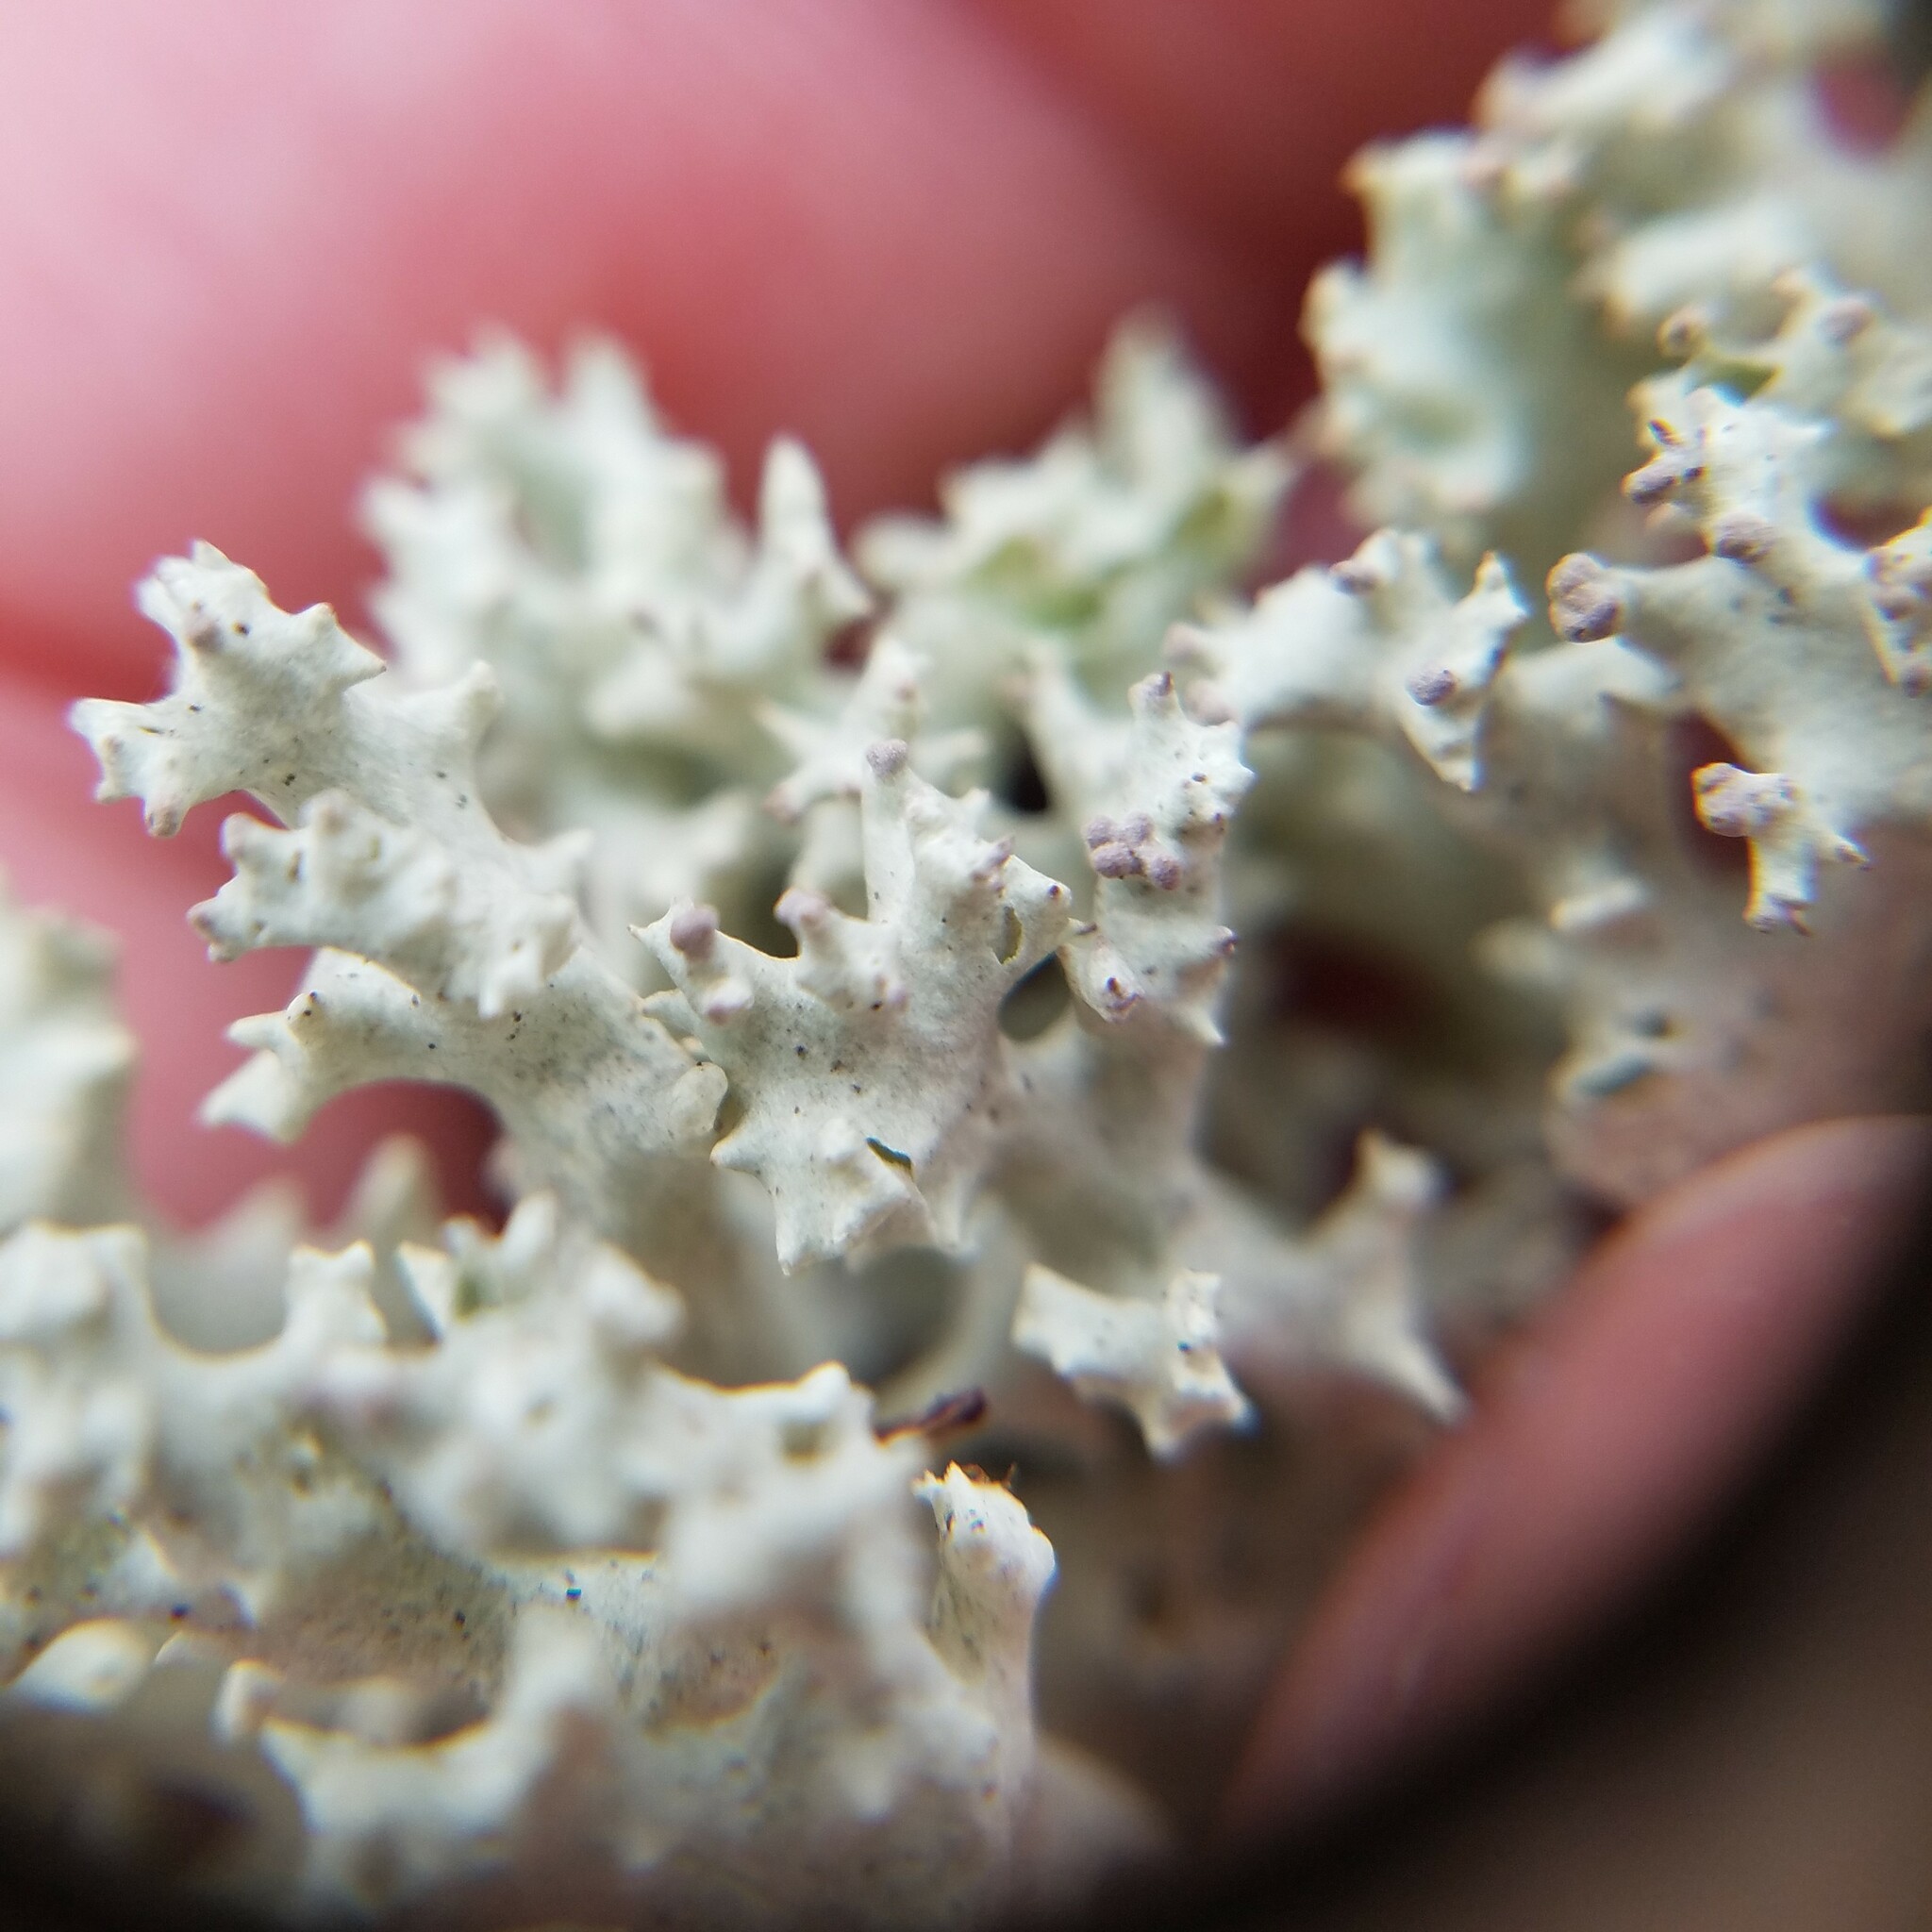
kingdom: Fungi
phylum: Ascomycota
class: Lecanoromycetes
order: Lecanorales
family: Cladoniaceae
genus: Cladonia
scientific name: Cladonia caroliniana
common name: Granite thorn
